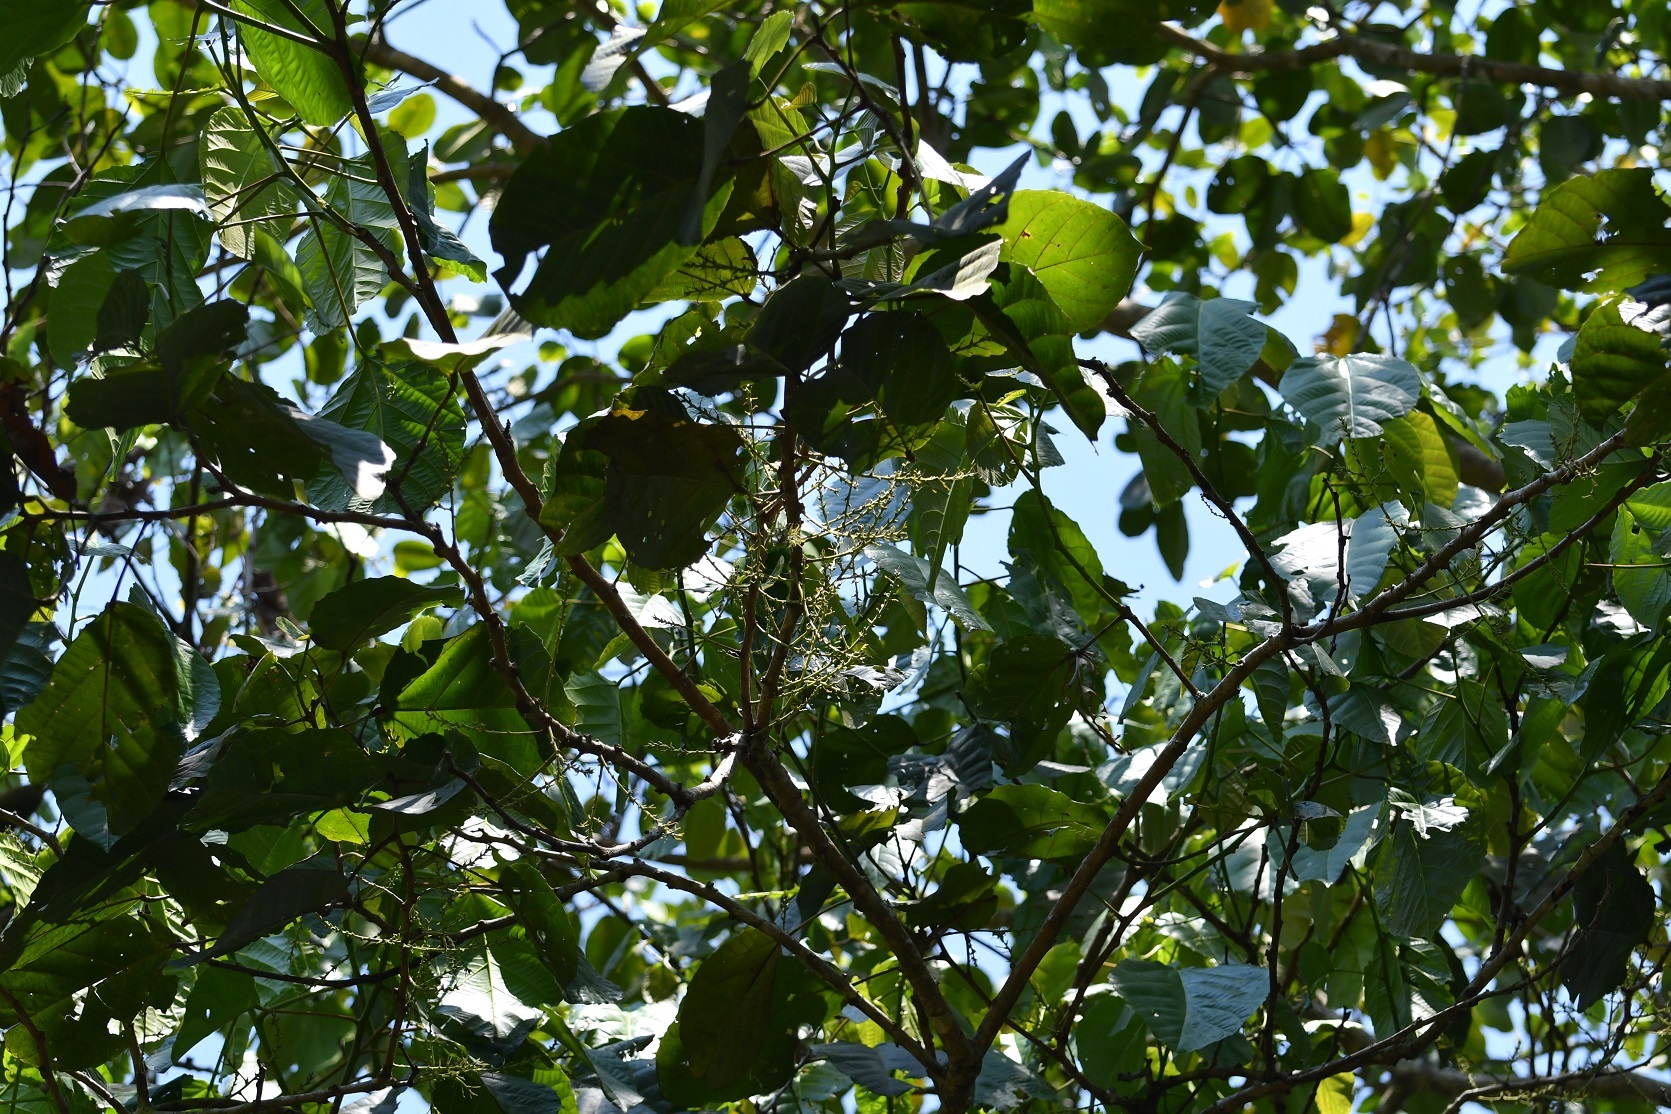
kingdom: Plantae
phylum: Tracheophyta
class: Magnoliopsida
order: Malpighiales
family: Euphorbiaceae
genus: Alchornea
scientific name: Alchornea latifolia
